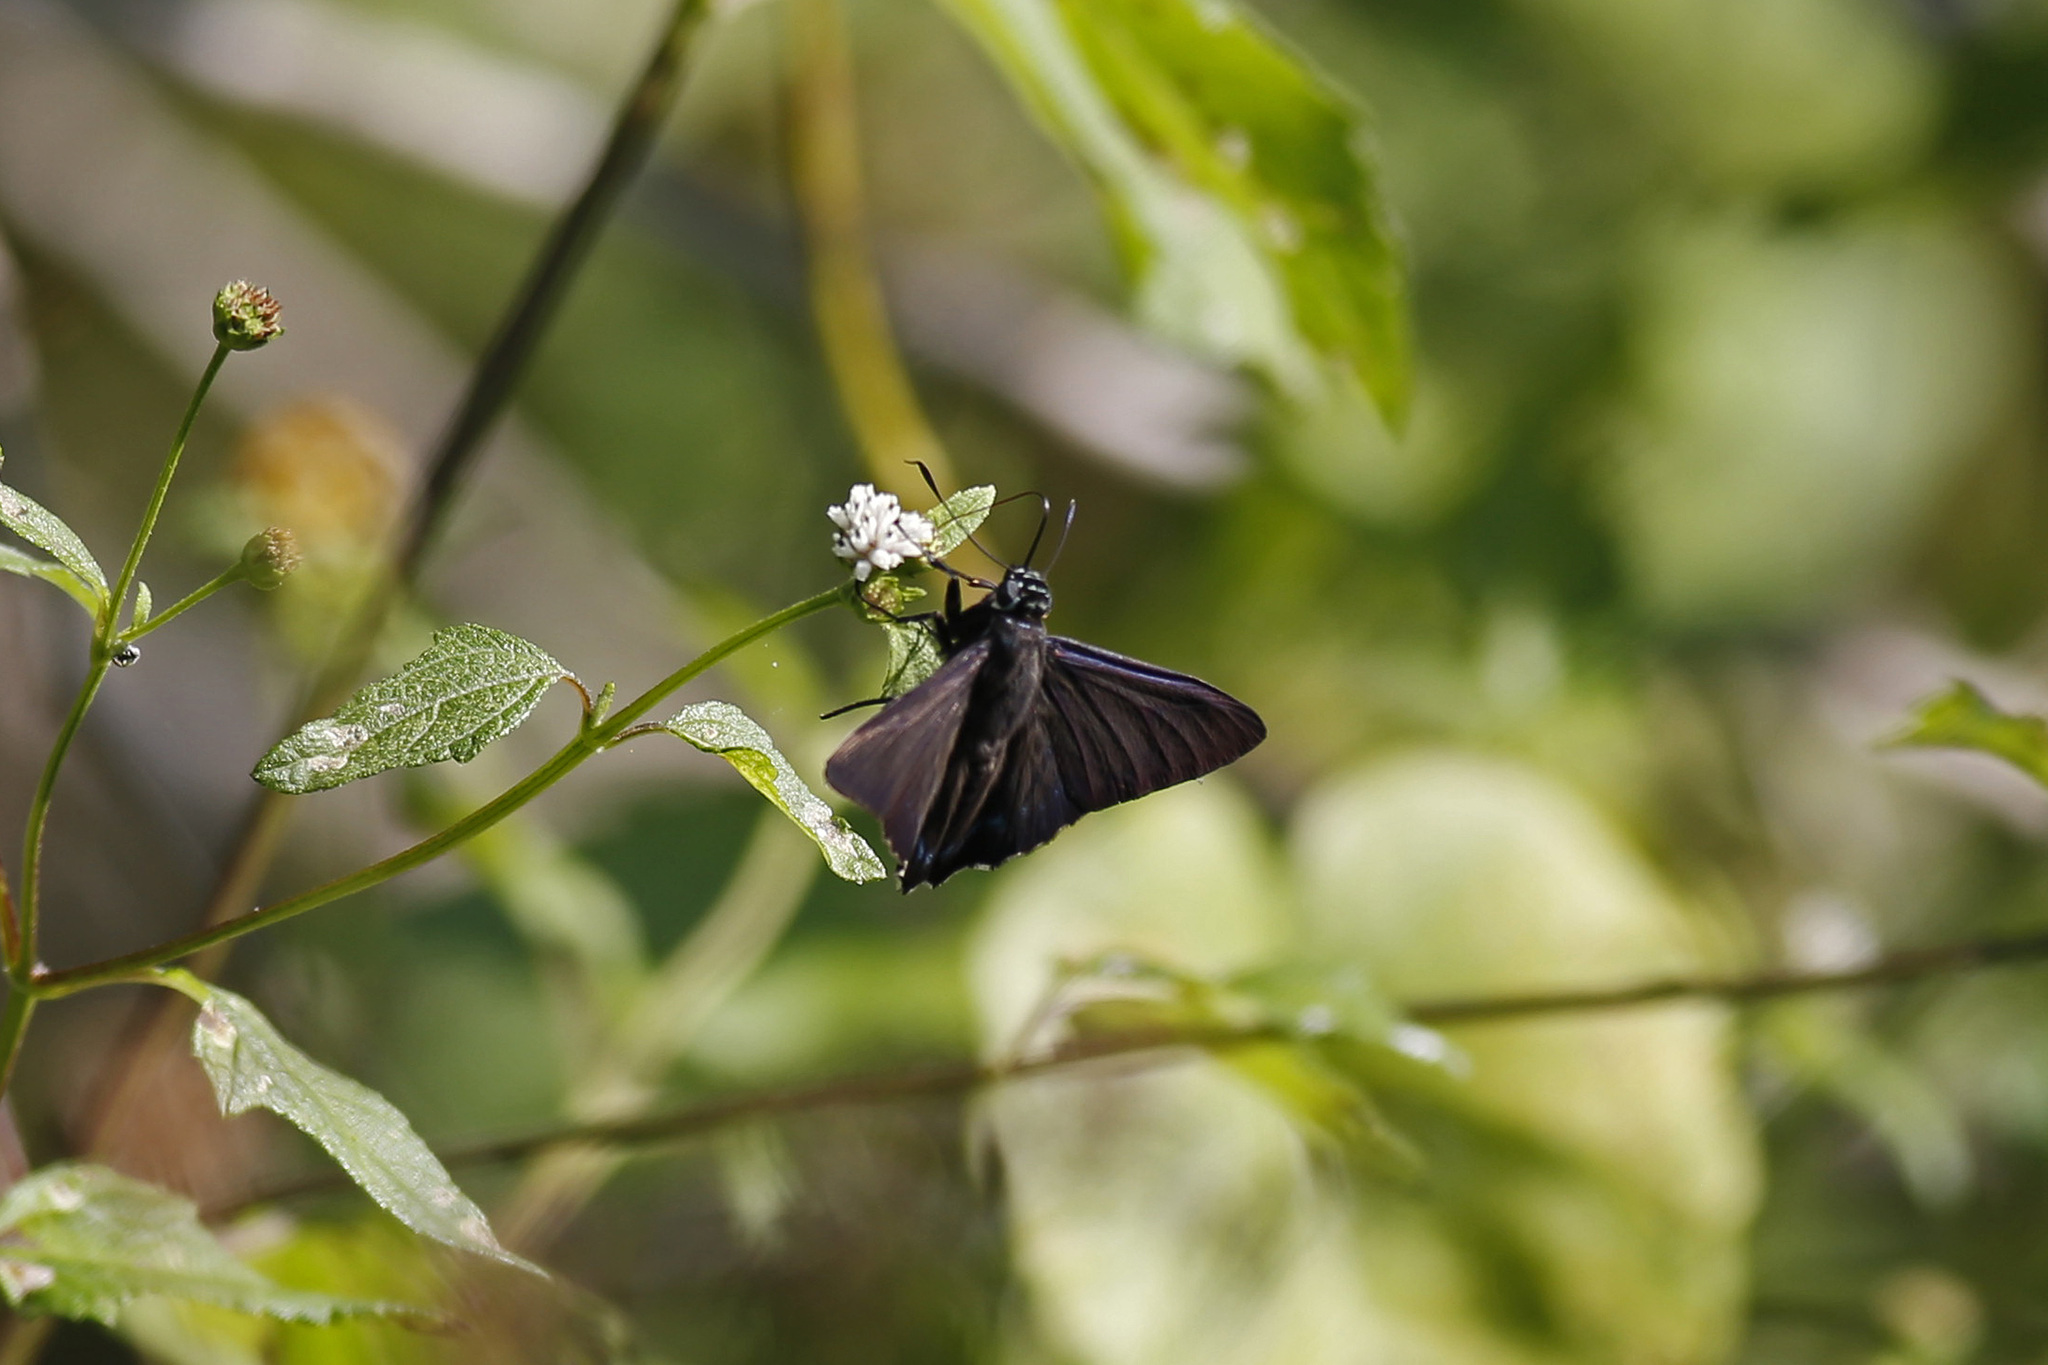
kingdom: Animalia
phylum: Arthropoda
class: Insecta
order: Lepidoptera
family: Hesperiidae
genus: Phocides
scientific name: Phocides pigmalion
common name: Mangrove skipper
